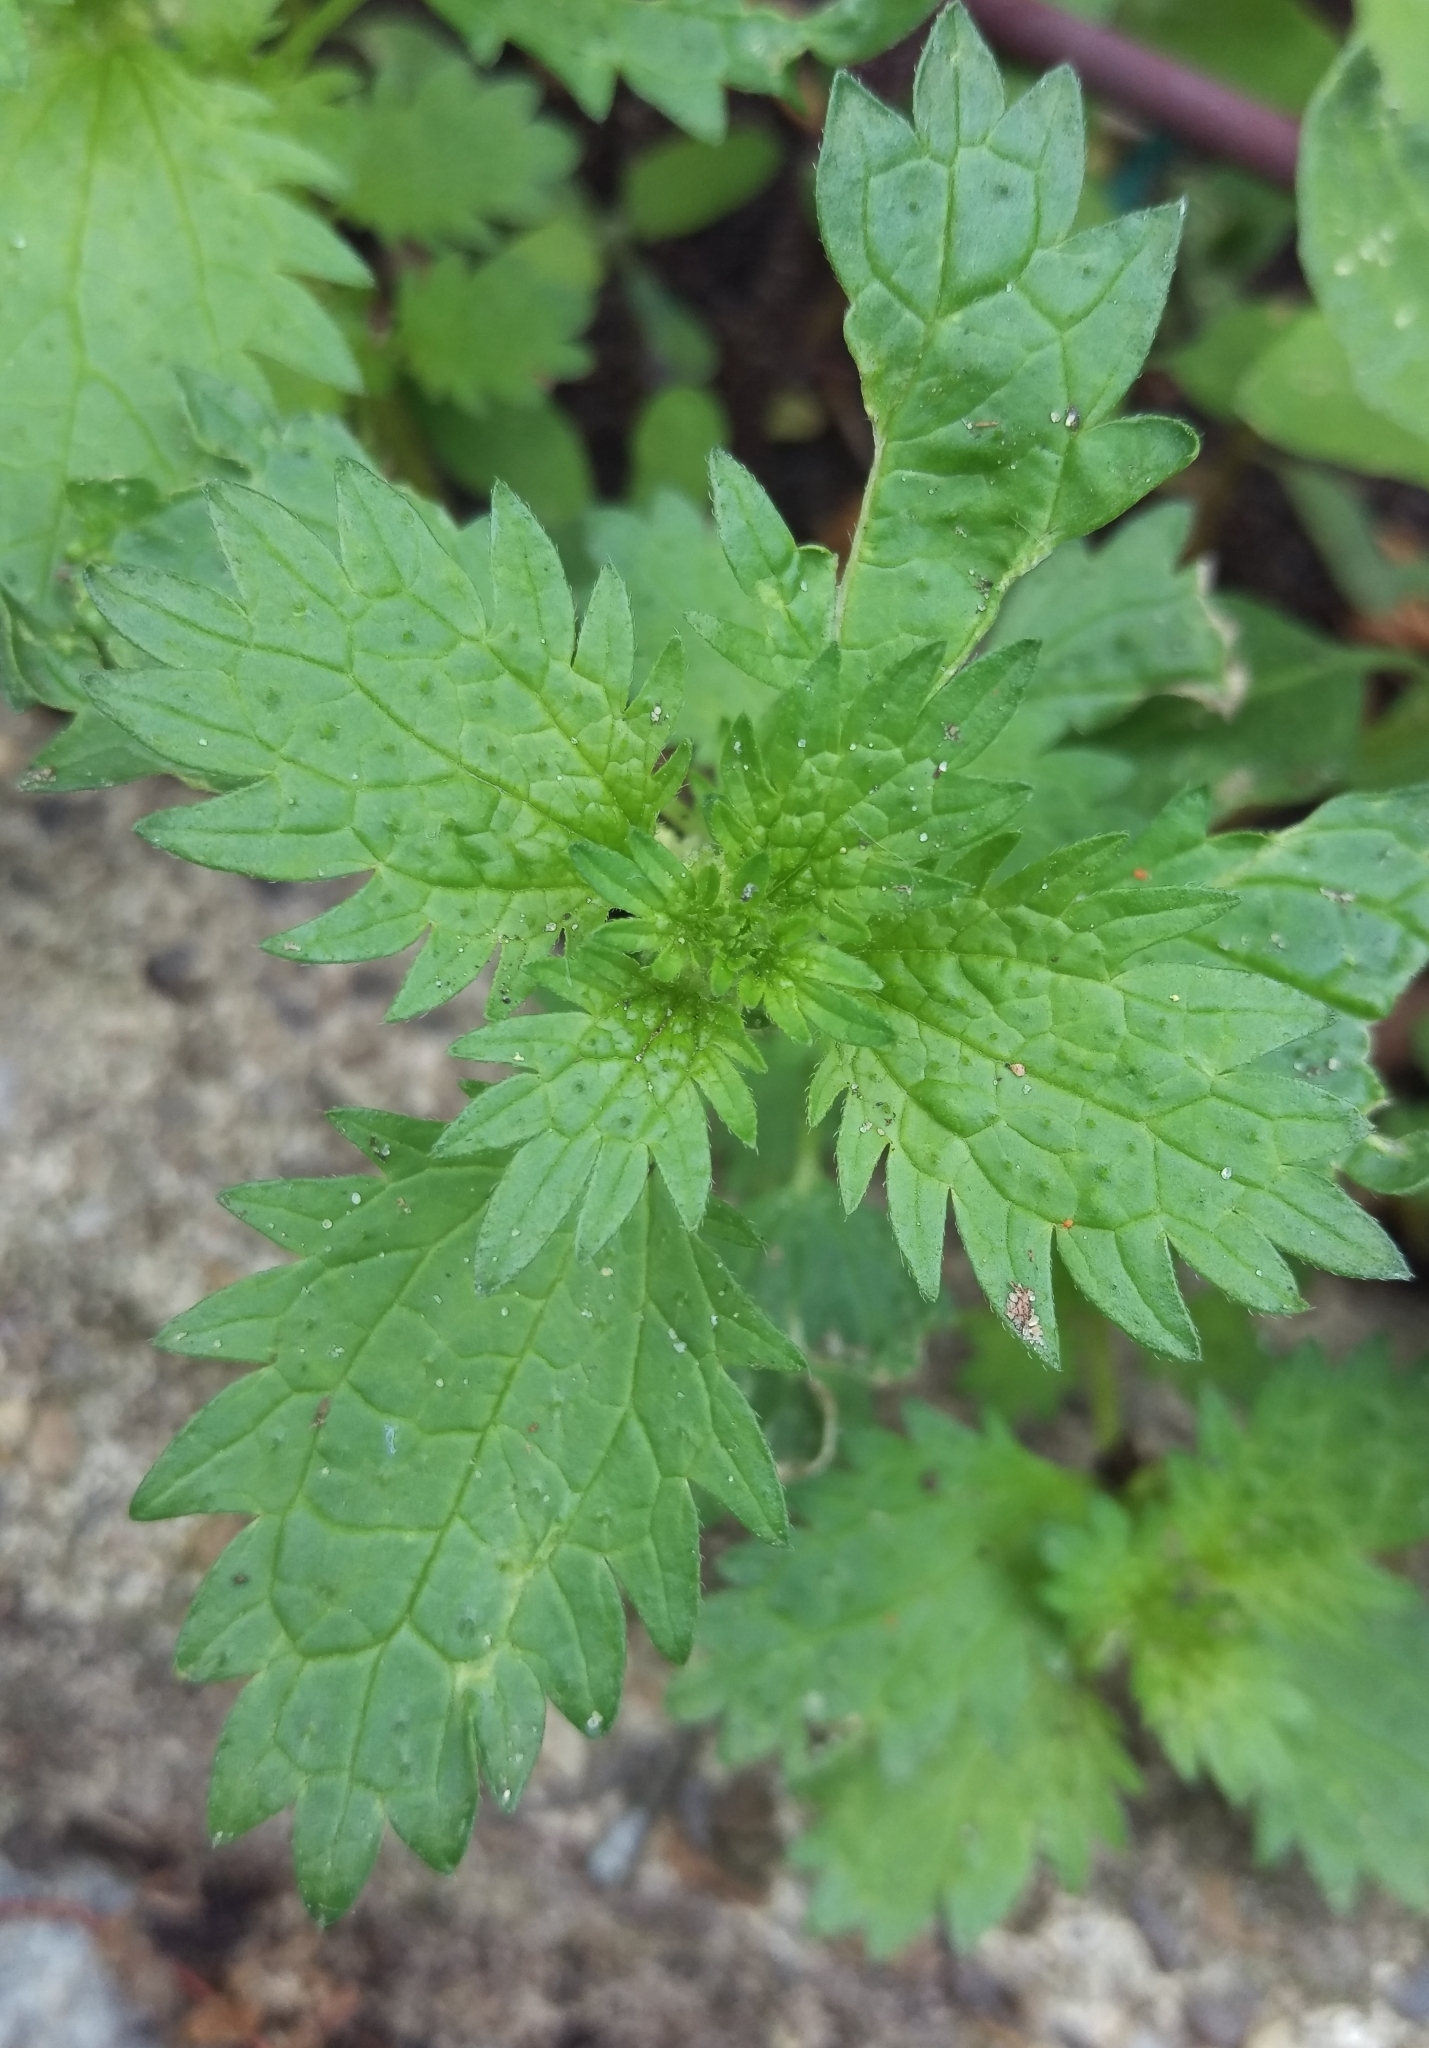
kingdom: Plantae
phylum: Tracheophyta
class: Magnoliopsida
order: Rosales
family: Urticaceae
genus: Urtica
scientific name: Urtica urens
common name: Dwarf nettle
